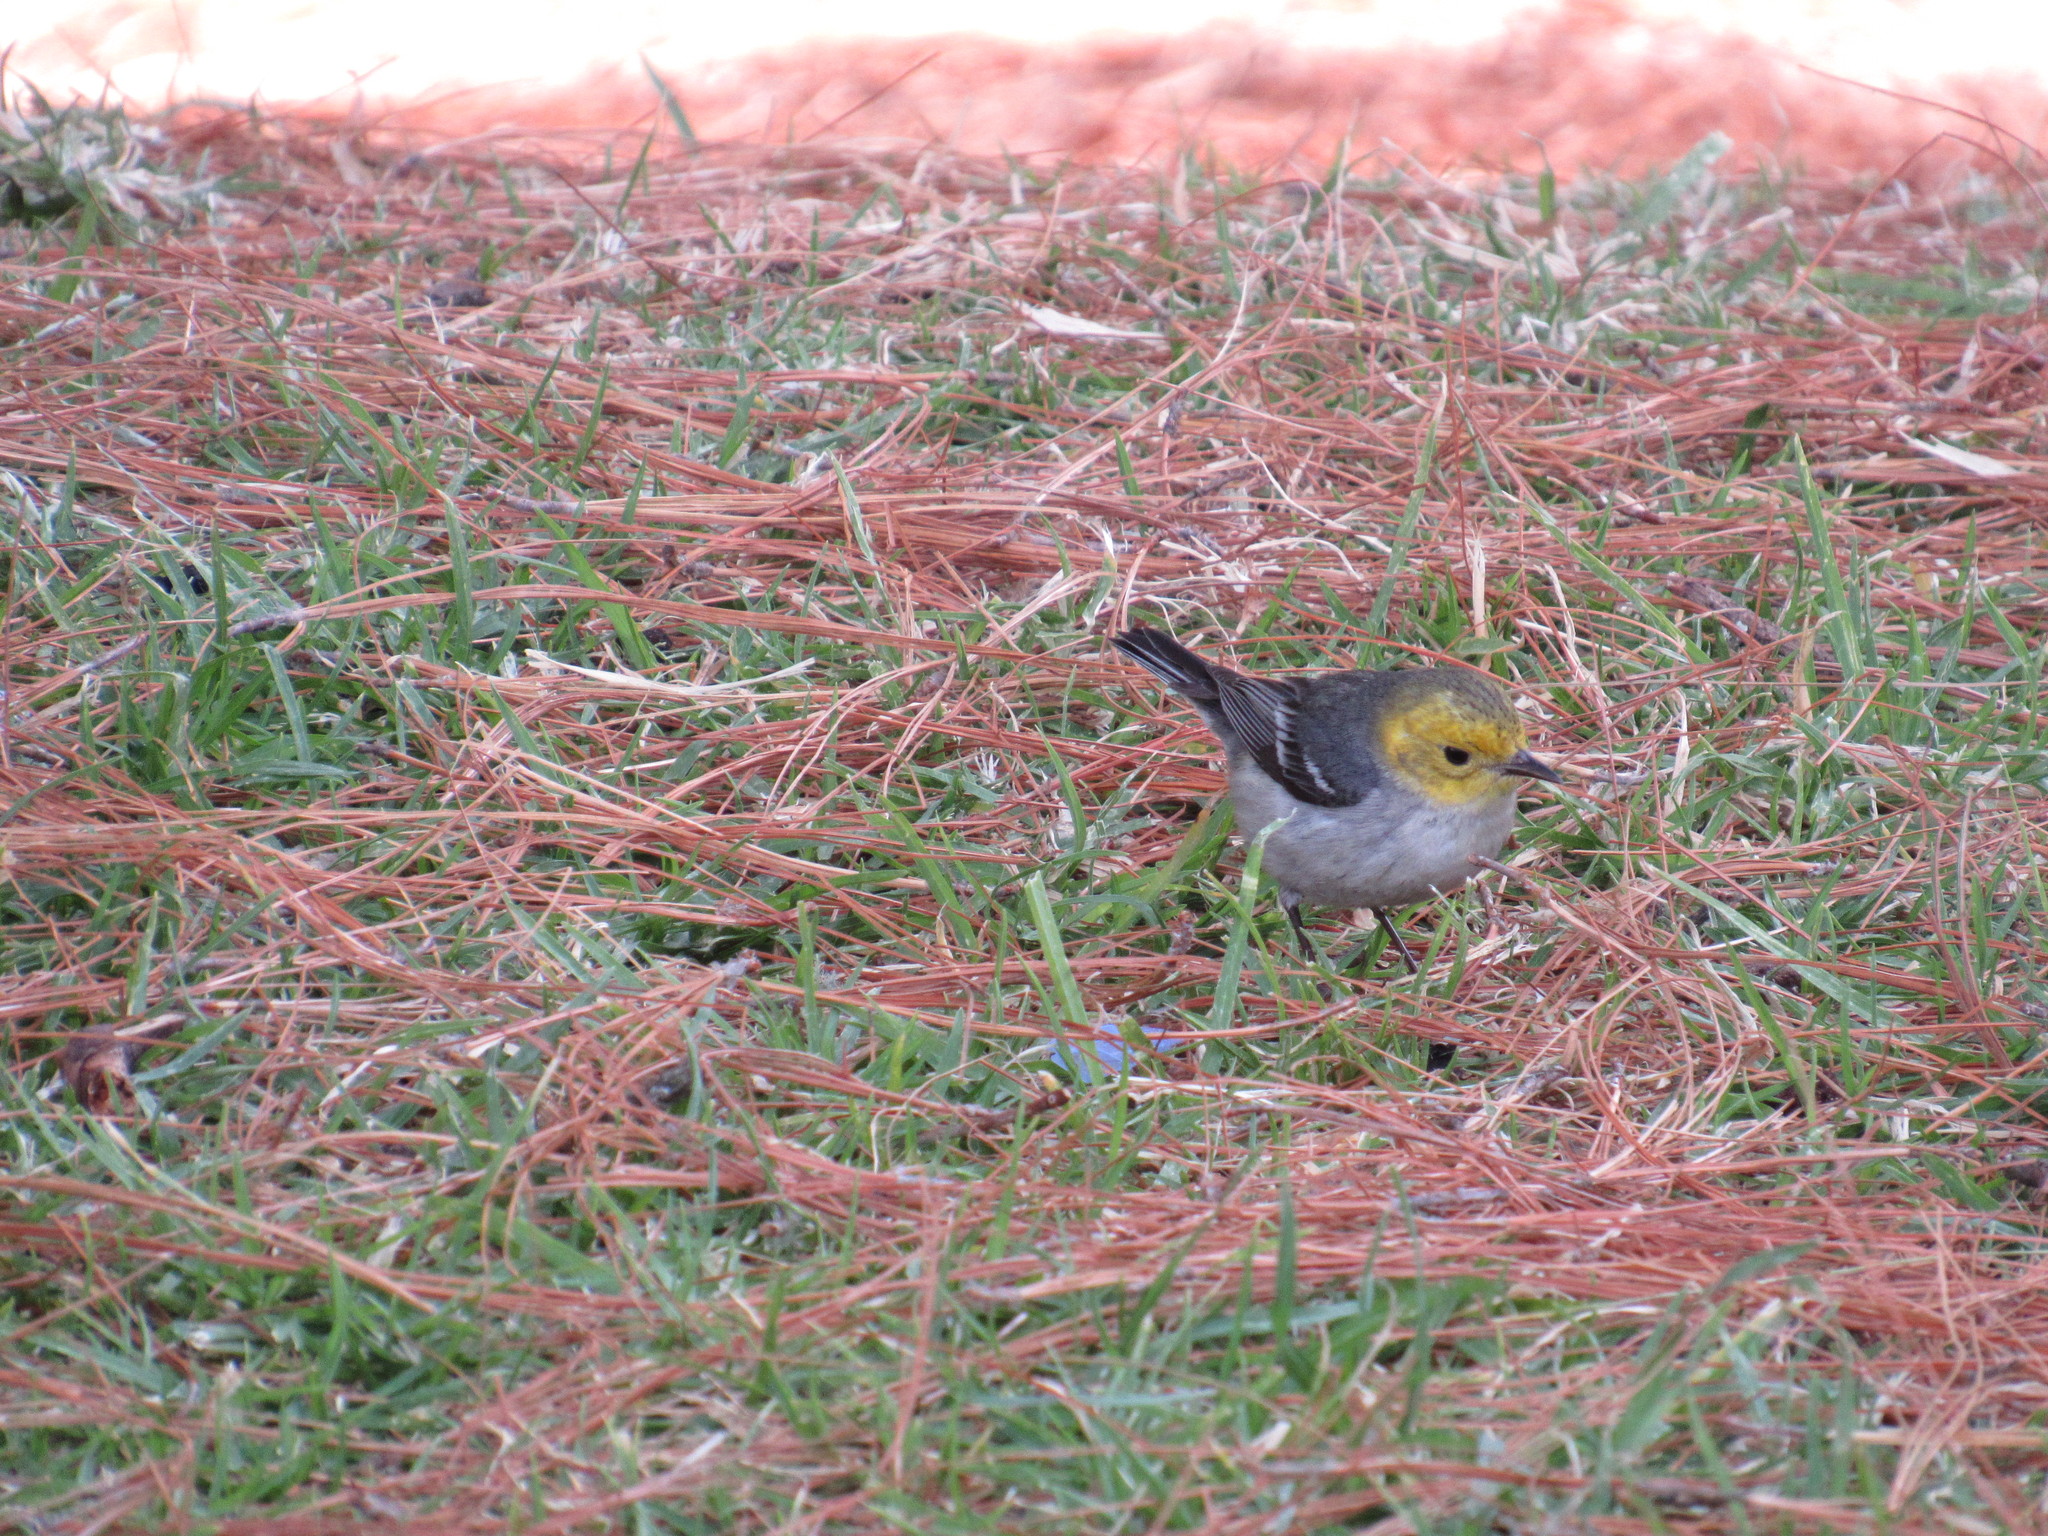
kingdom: Animalia
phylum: Chordata
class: Aves
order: Passeriformes
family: Parulidae
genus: Setophaga
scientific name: Setophaga occidentalis
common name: Hermit warbler
